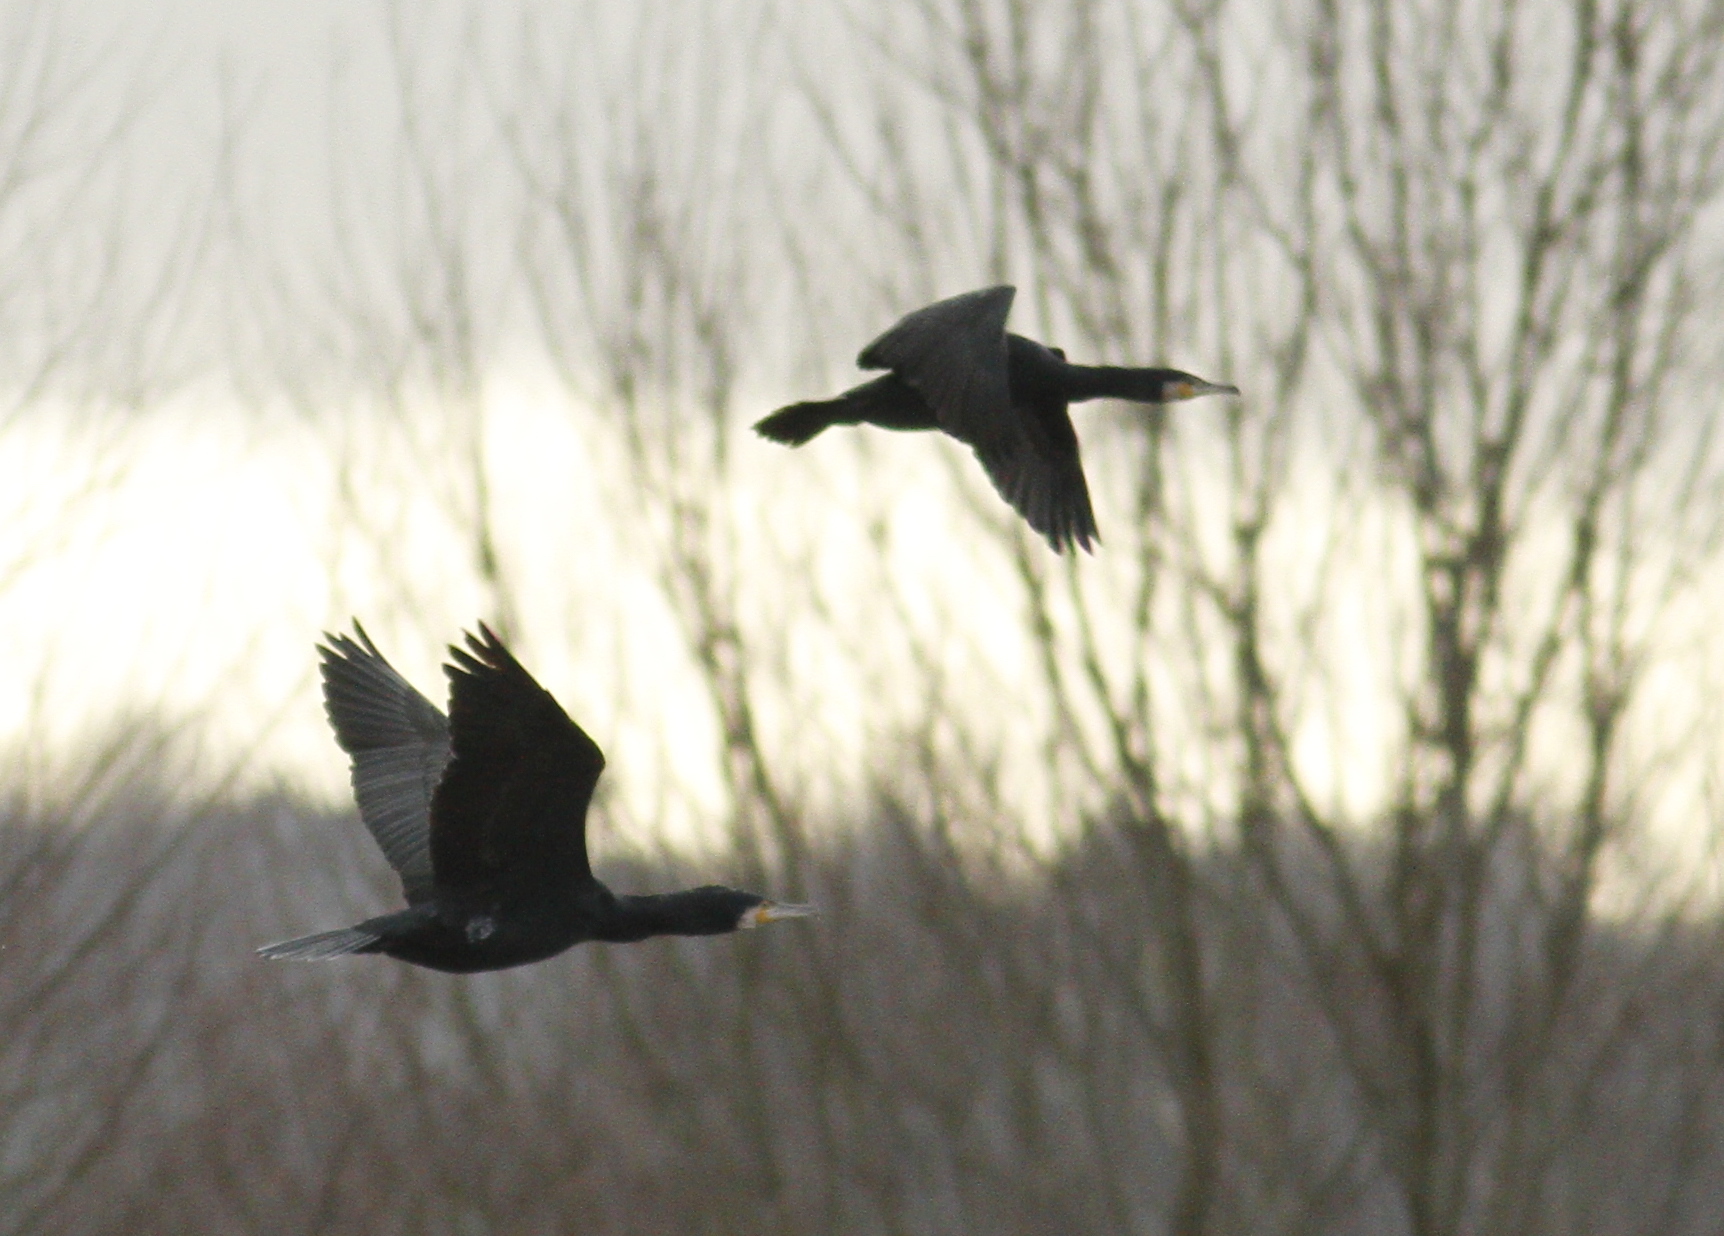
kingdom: Animalia
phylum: Chordata
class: Aves
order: Suliformes
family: Phalacrocoracidae
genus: Phalacrocorax
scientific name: Phalacrocorax carbo
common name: Great cormorant
